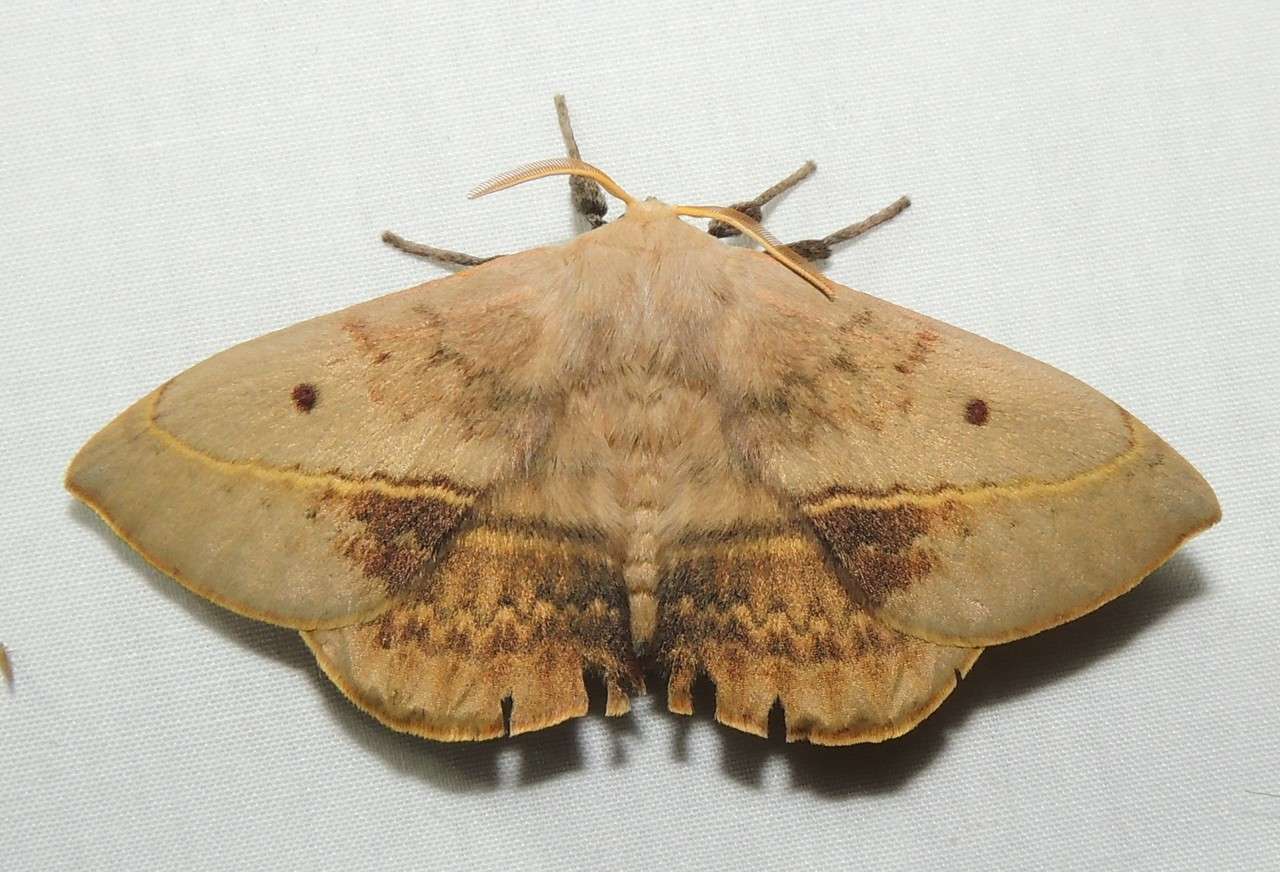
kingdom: Animalia
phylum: Arthropoda
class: Insecta
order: Lepidoptera
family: Anthelidae
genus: Anthela
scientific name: Anthela varia
